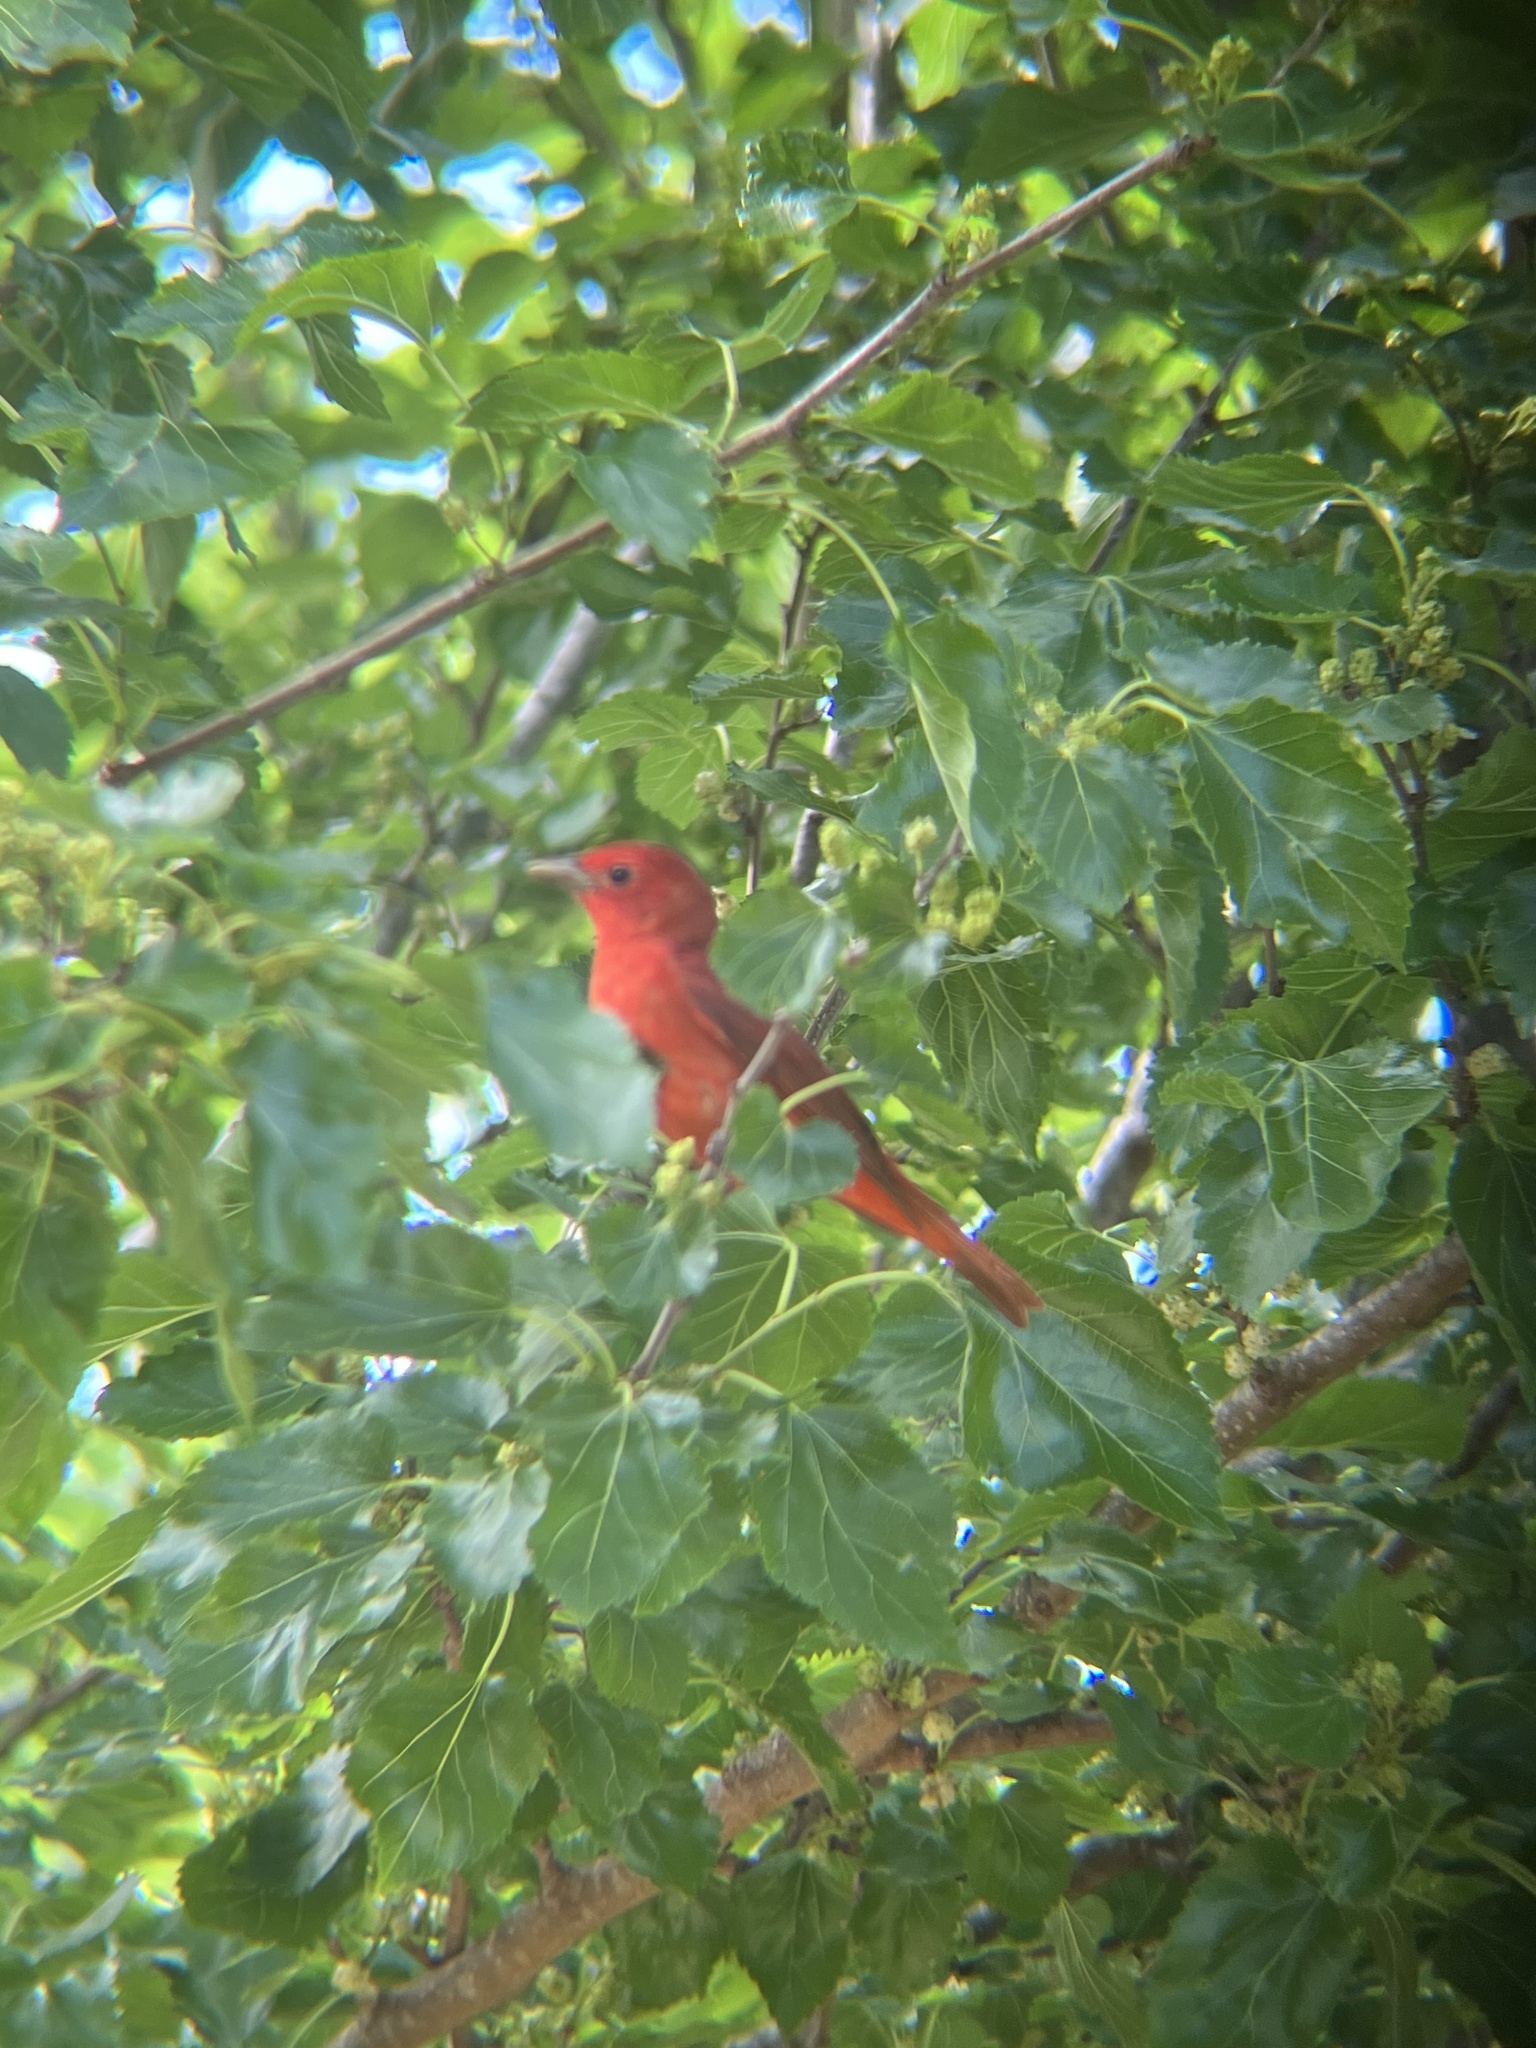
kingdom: Animalia
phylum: Chordata
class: Aves
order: Passeriformes
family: Cardinalidae
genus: Piranga
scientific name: Piranga rubra
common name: Summer tanager
